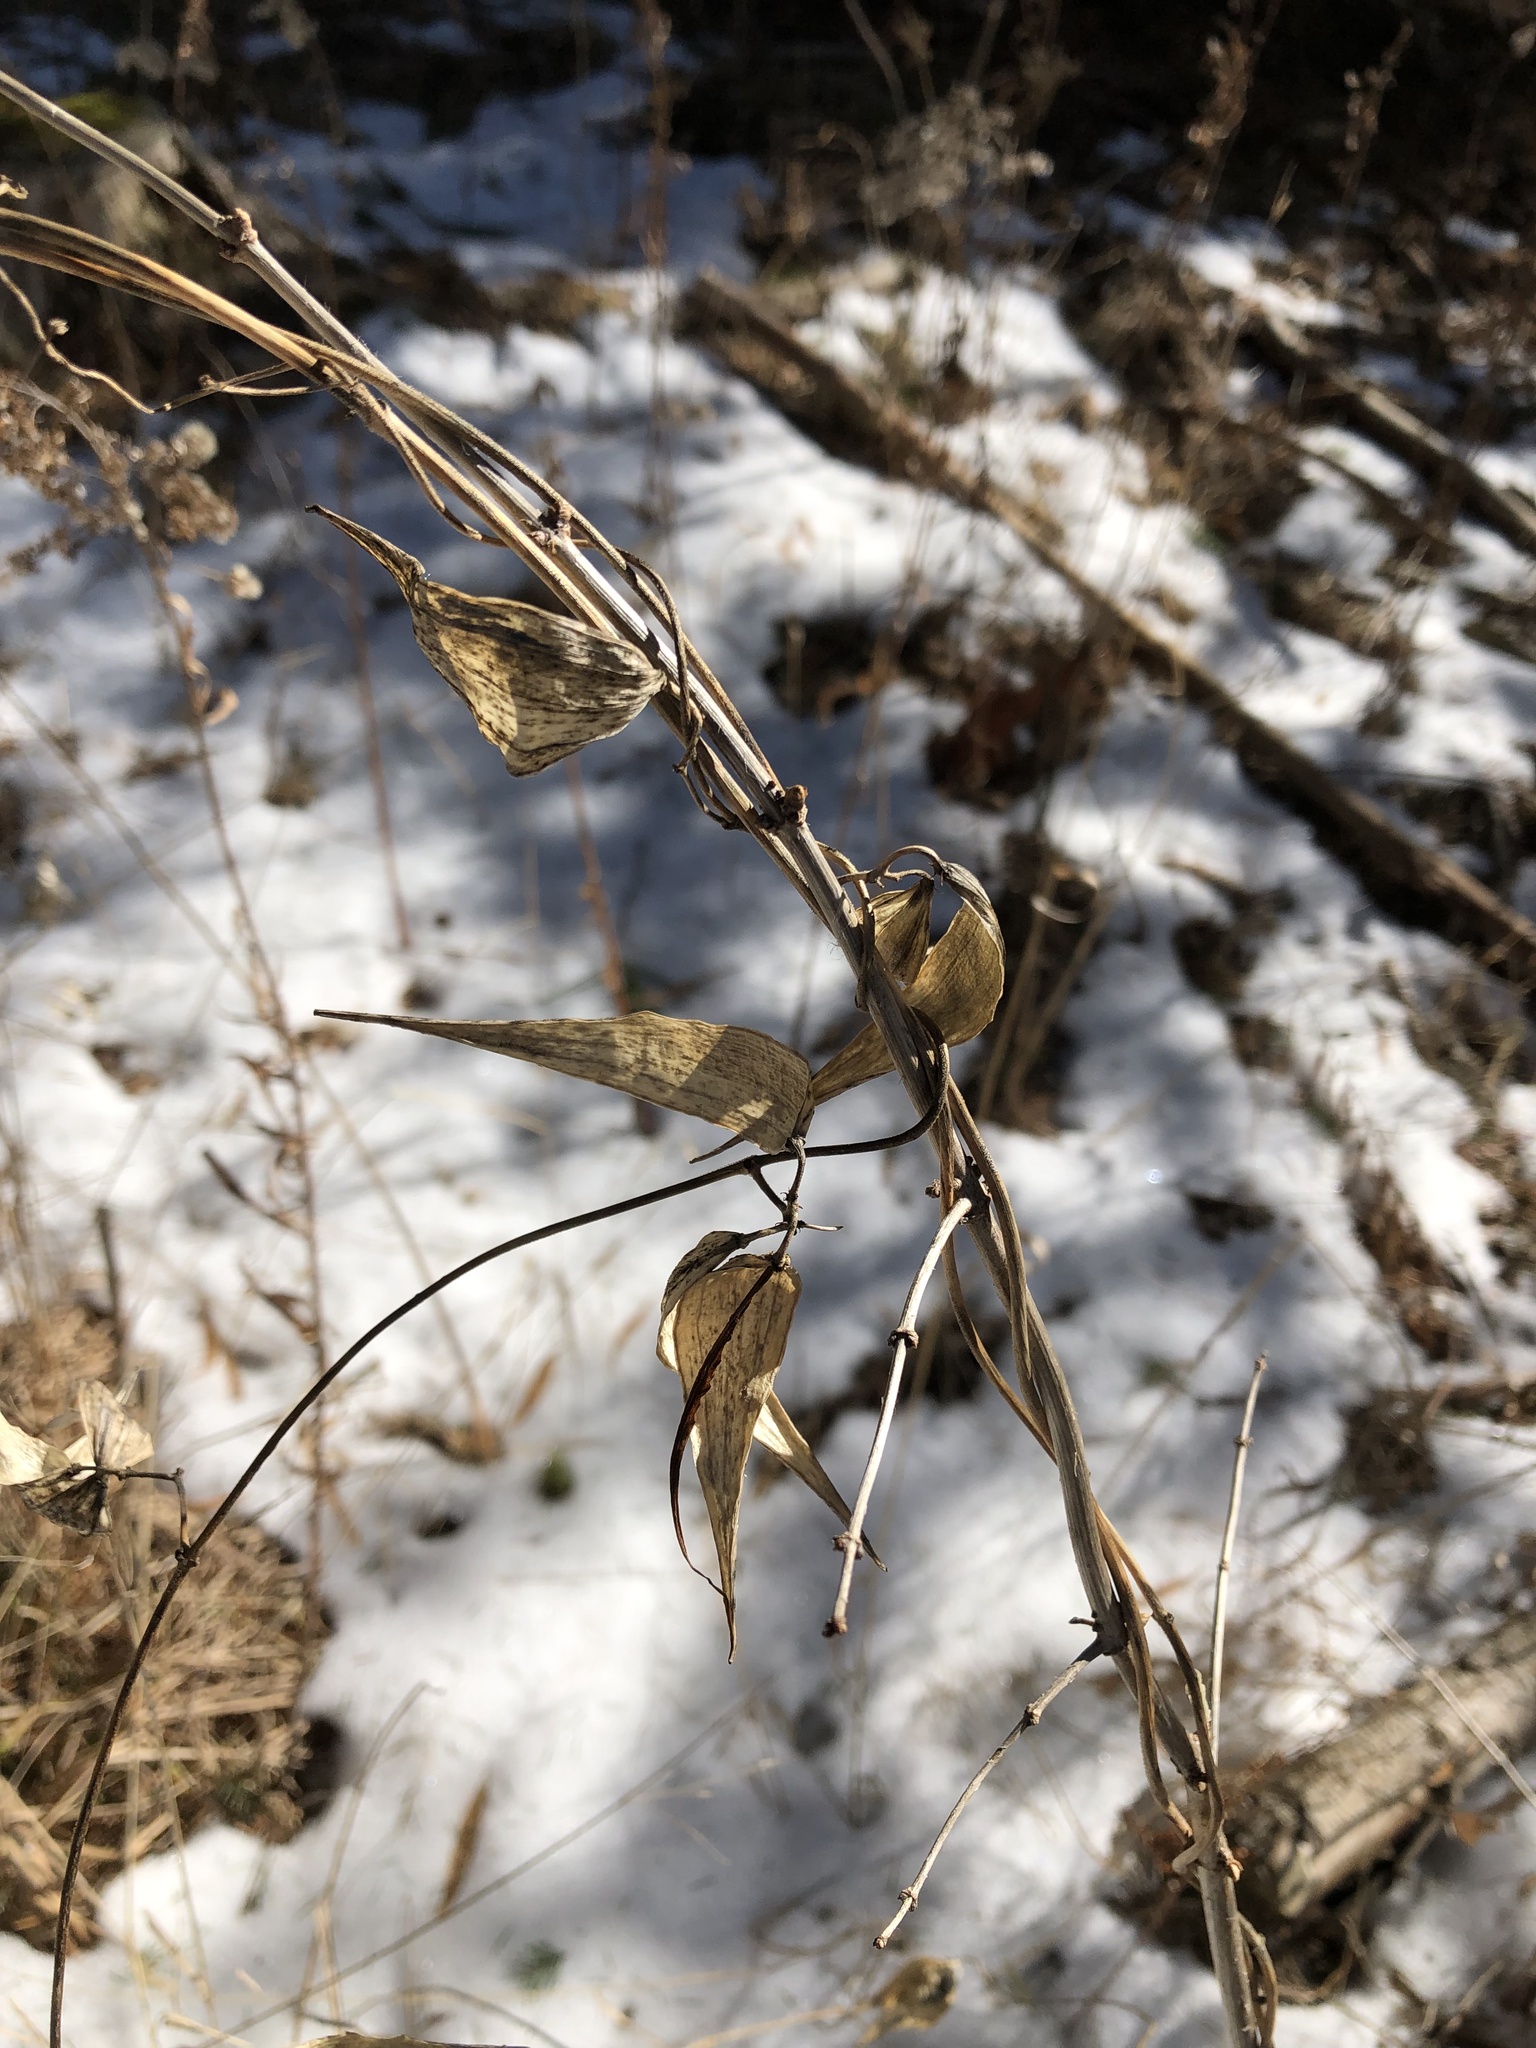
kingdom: Plantae
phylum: Tracheophyta
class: Magnoliopsida
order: Gentianales
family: Apocynaceae
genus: Vincetoxicum
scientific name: Vincetoxicum rossicum
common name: Dog-strangling vine
